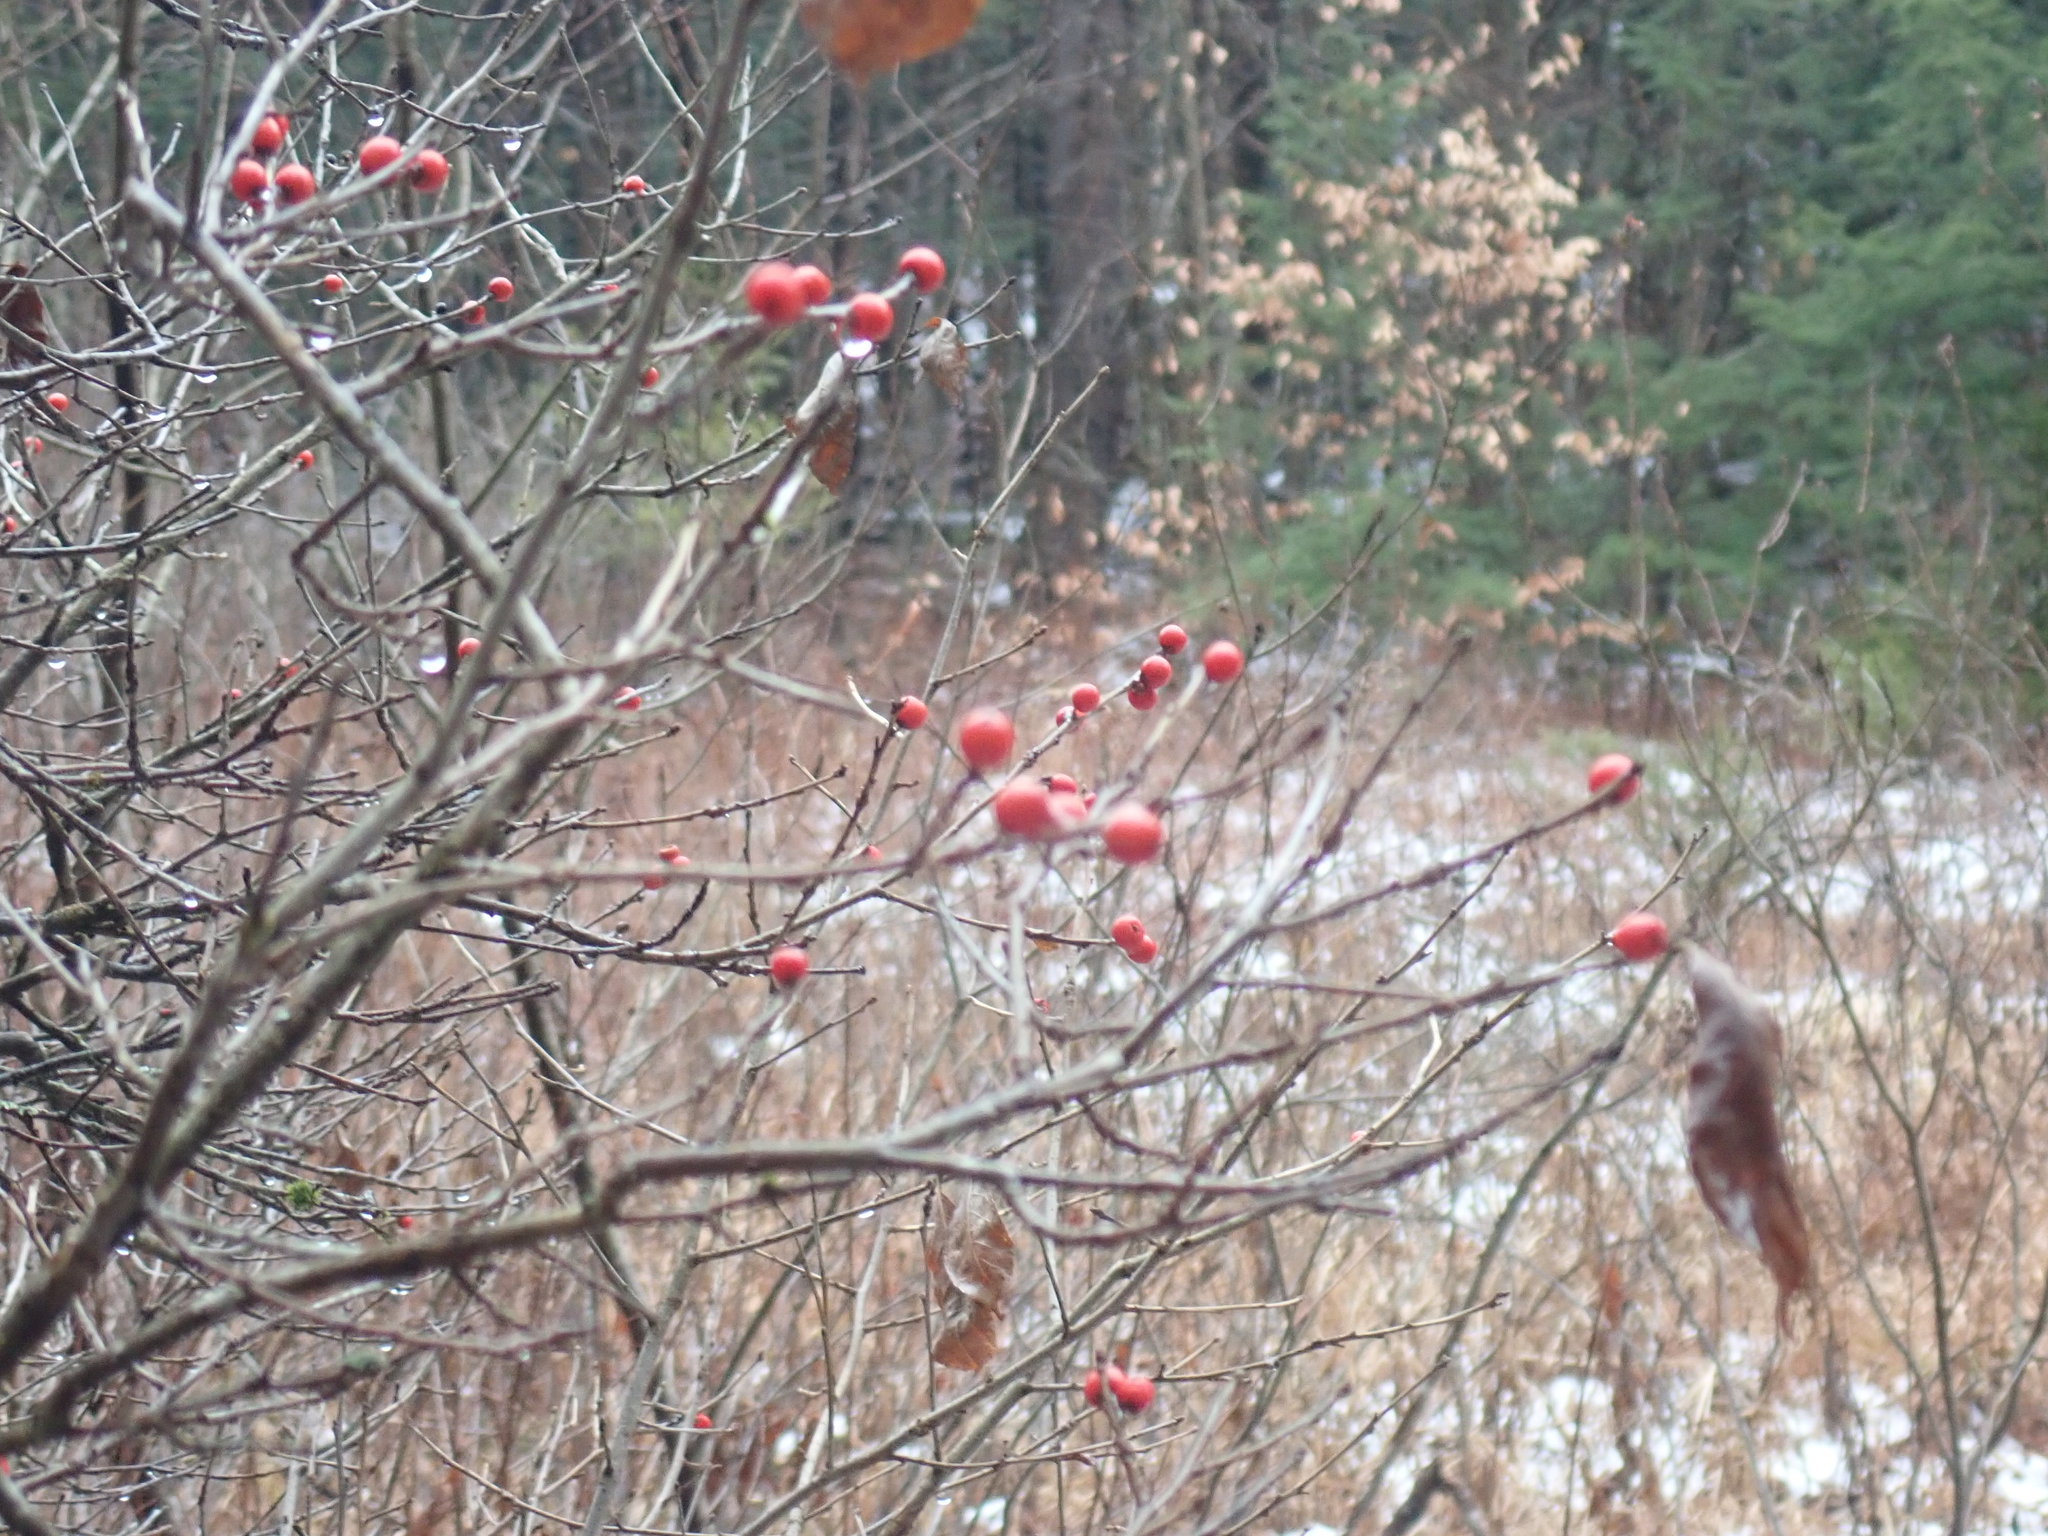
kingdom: Plantae
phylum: Tracheophyta
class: Magnoliopsida
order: Aquifoliales
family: Aquifoliaceae
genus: Ilex
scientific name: Ilex verticillata
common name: Virginia winterberry
